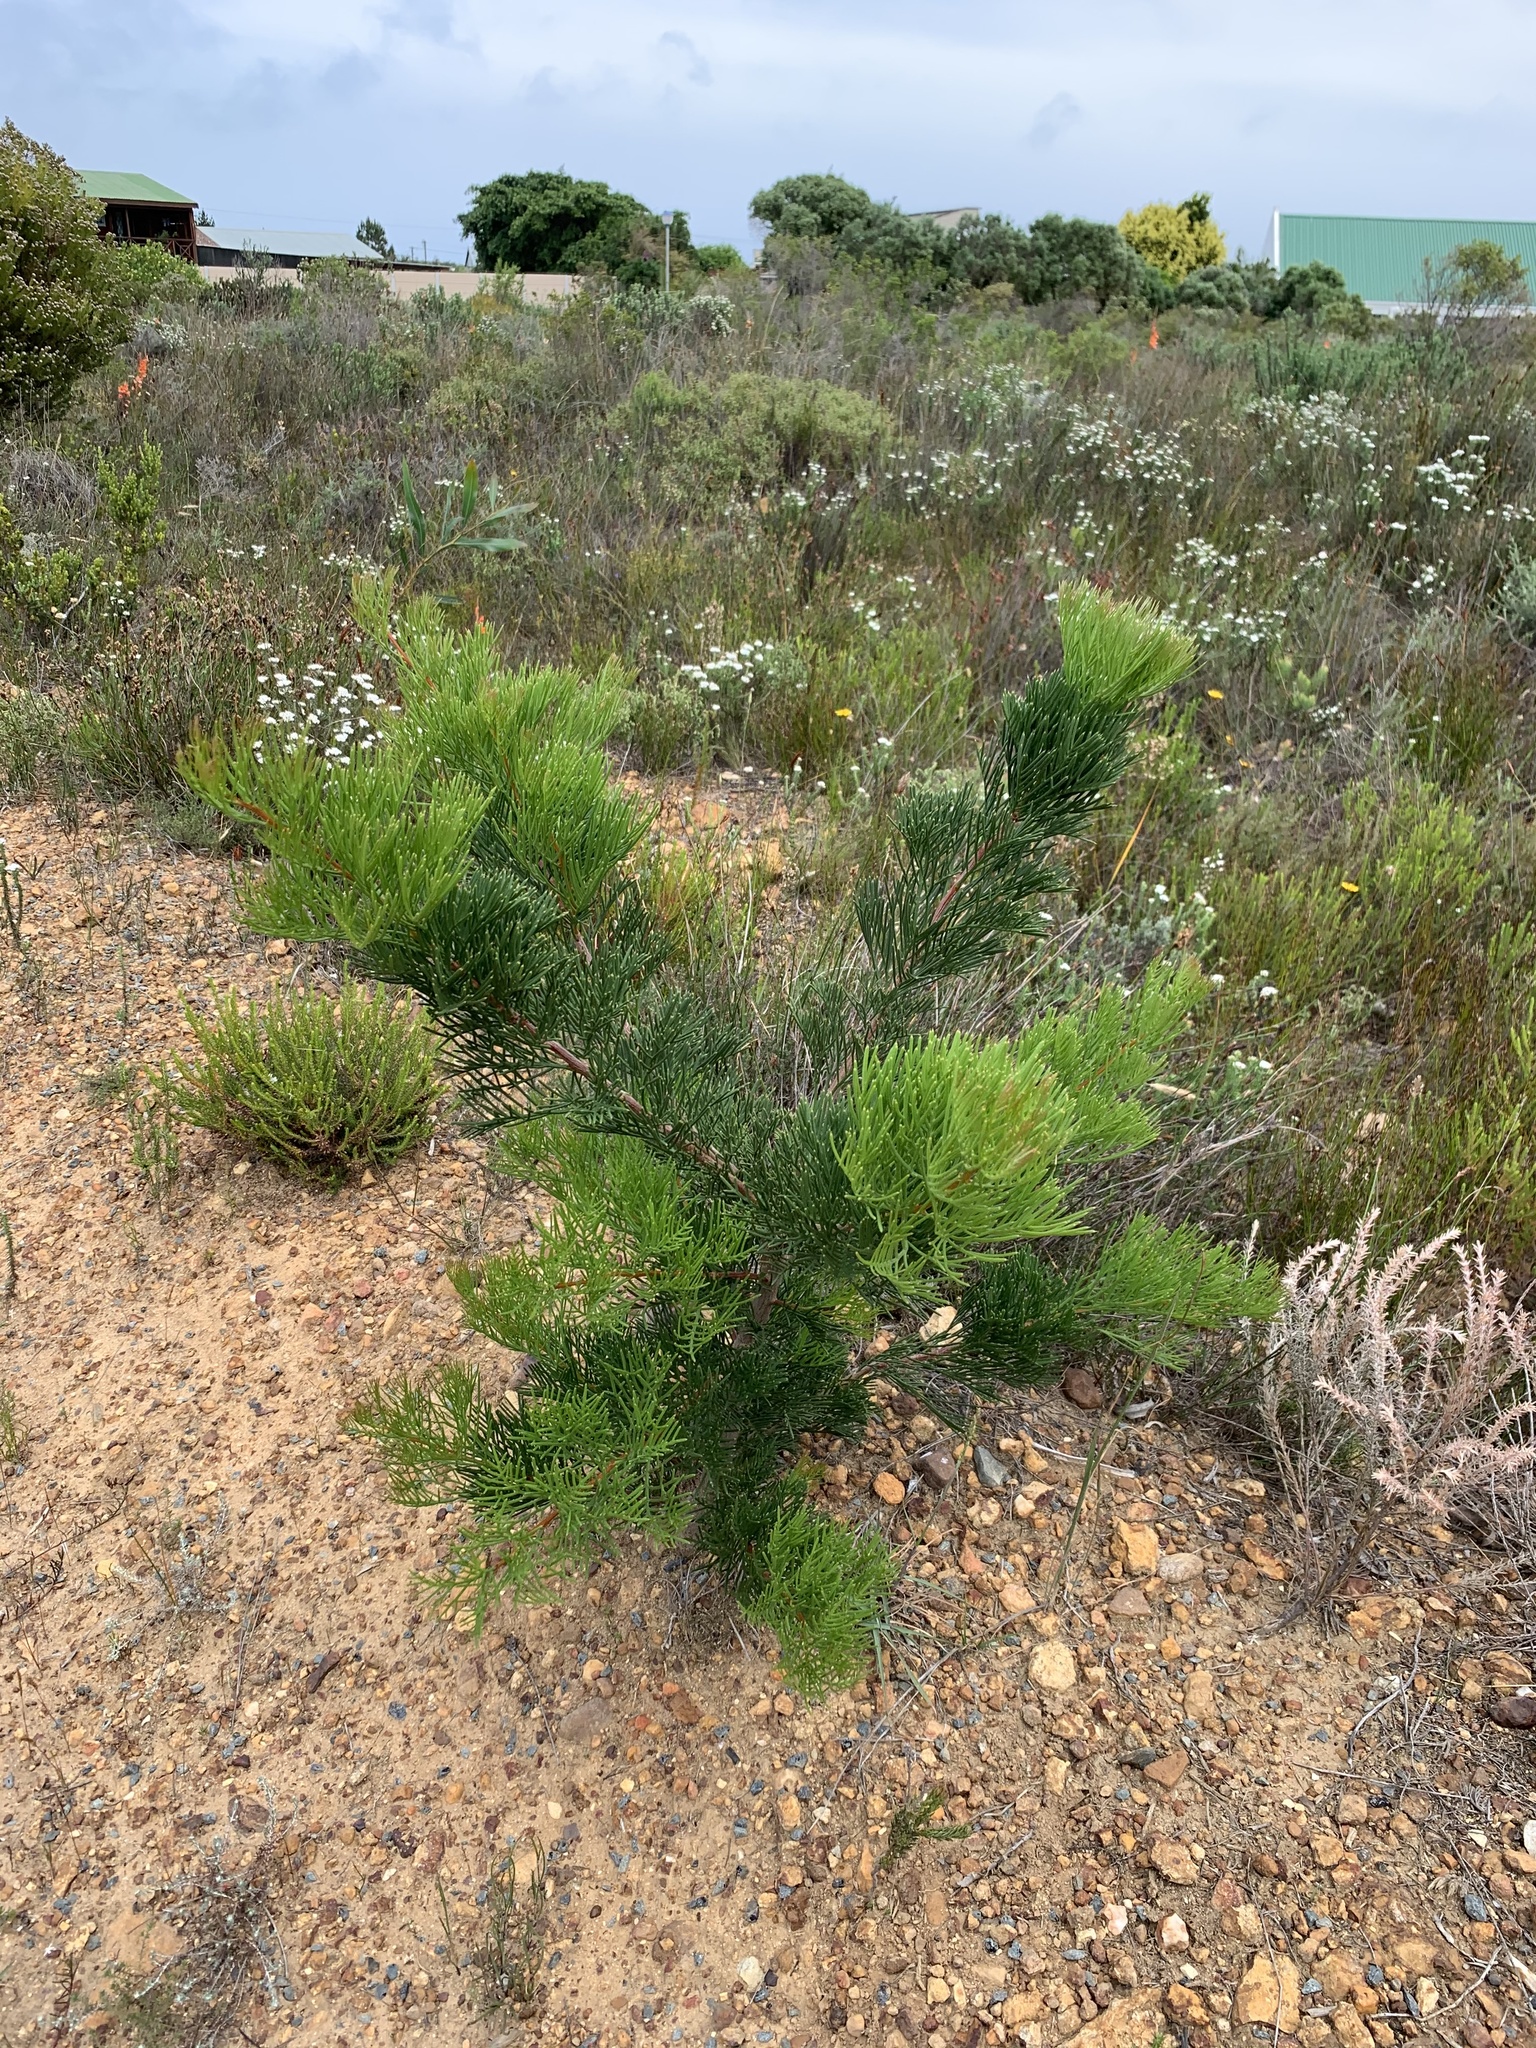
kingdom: Plantae
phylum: Tracheophyta
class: Magnoliopsida
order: Proteales
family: Proteaceae
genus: Hakea
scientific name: Hakea drupacea
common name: Sweet hakea
